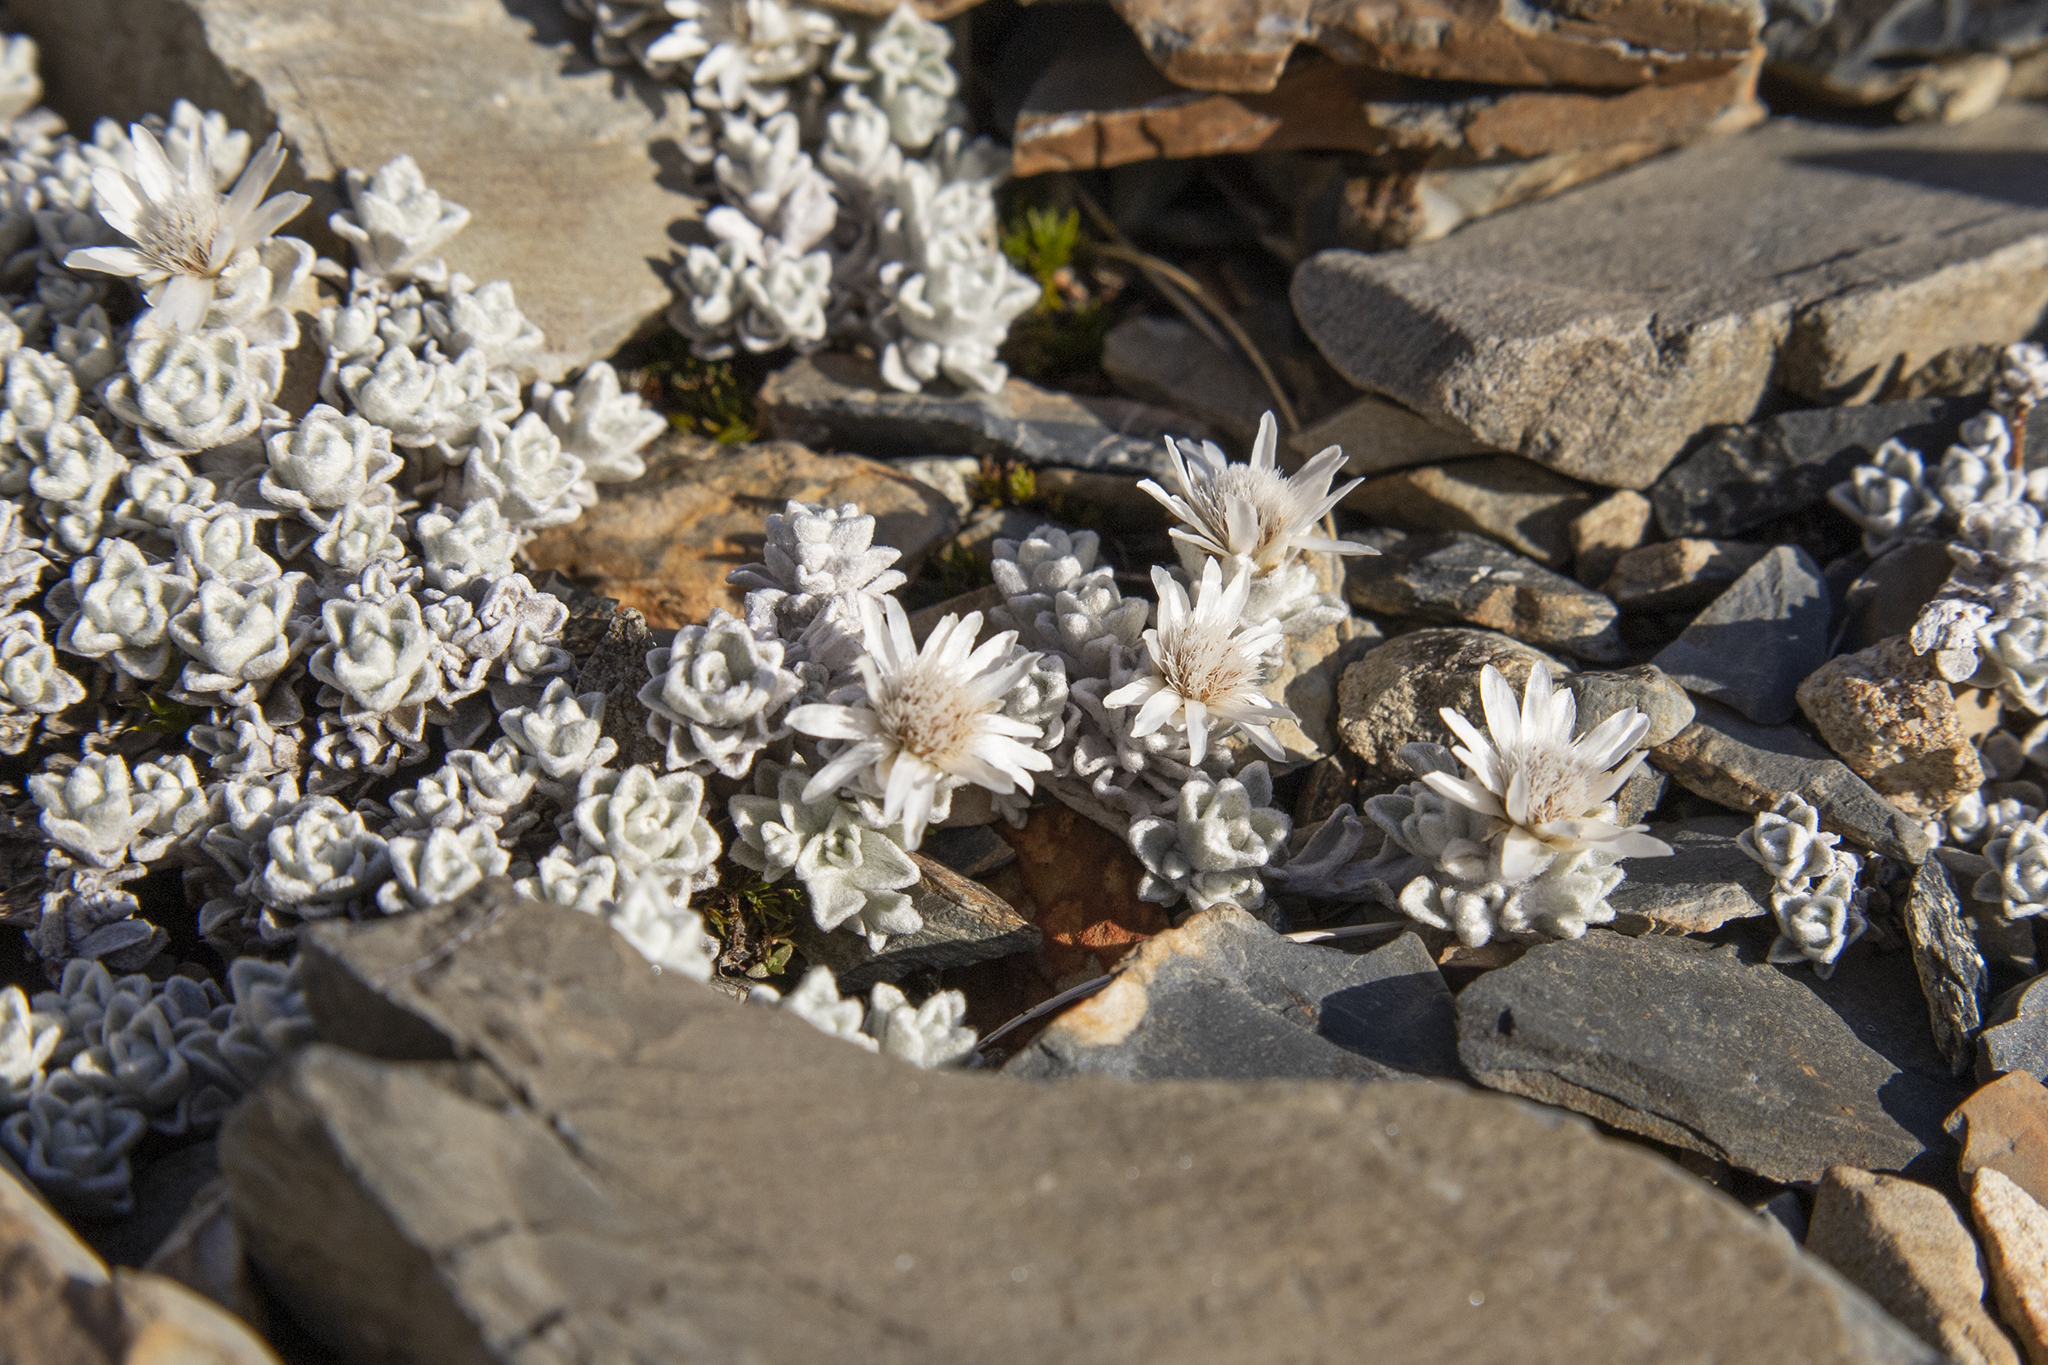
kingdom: Plantae
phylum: Tracheophyta
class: Magnoliopsida
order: Asterales
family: Asteraceae
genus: Raoulia
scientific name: Raoulia youngii
